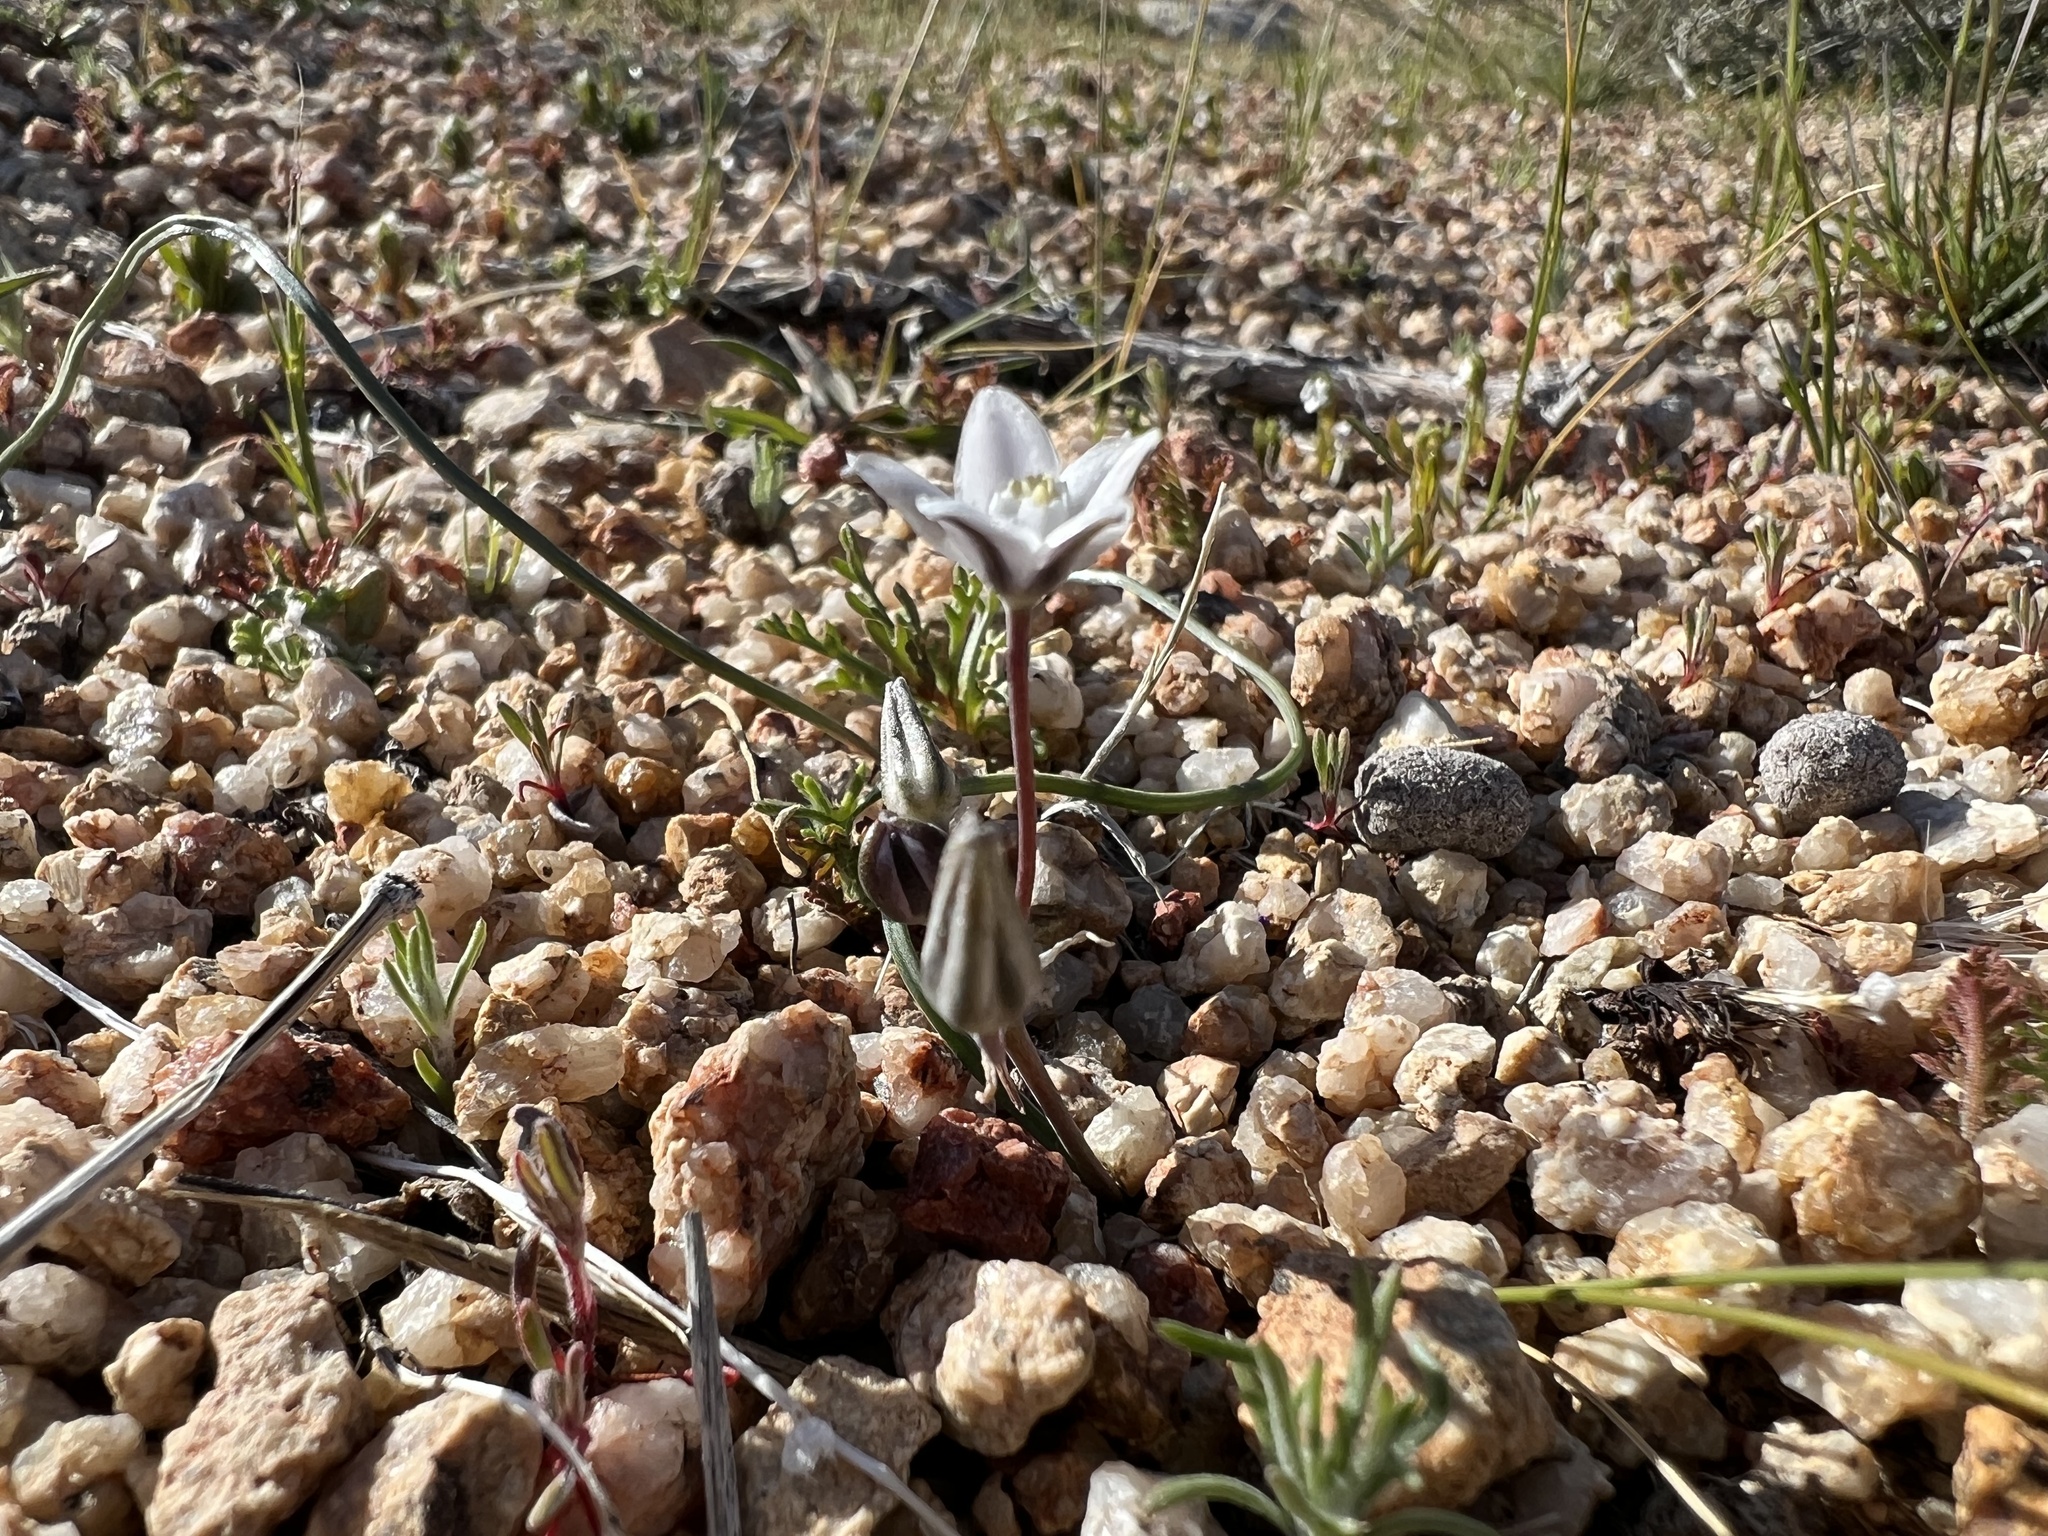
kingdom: Plantae
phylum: Tracheophyta
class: Liliopsida
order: Asparagales
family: Asparagaceae
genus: Muilla
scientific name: Muilla coronata
